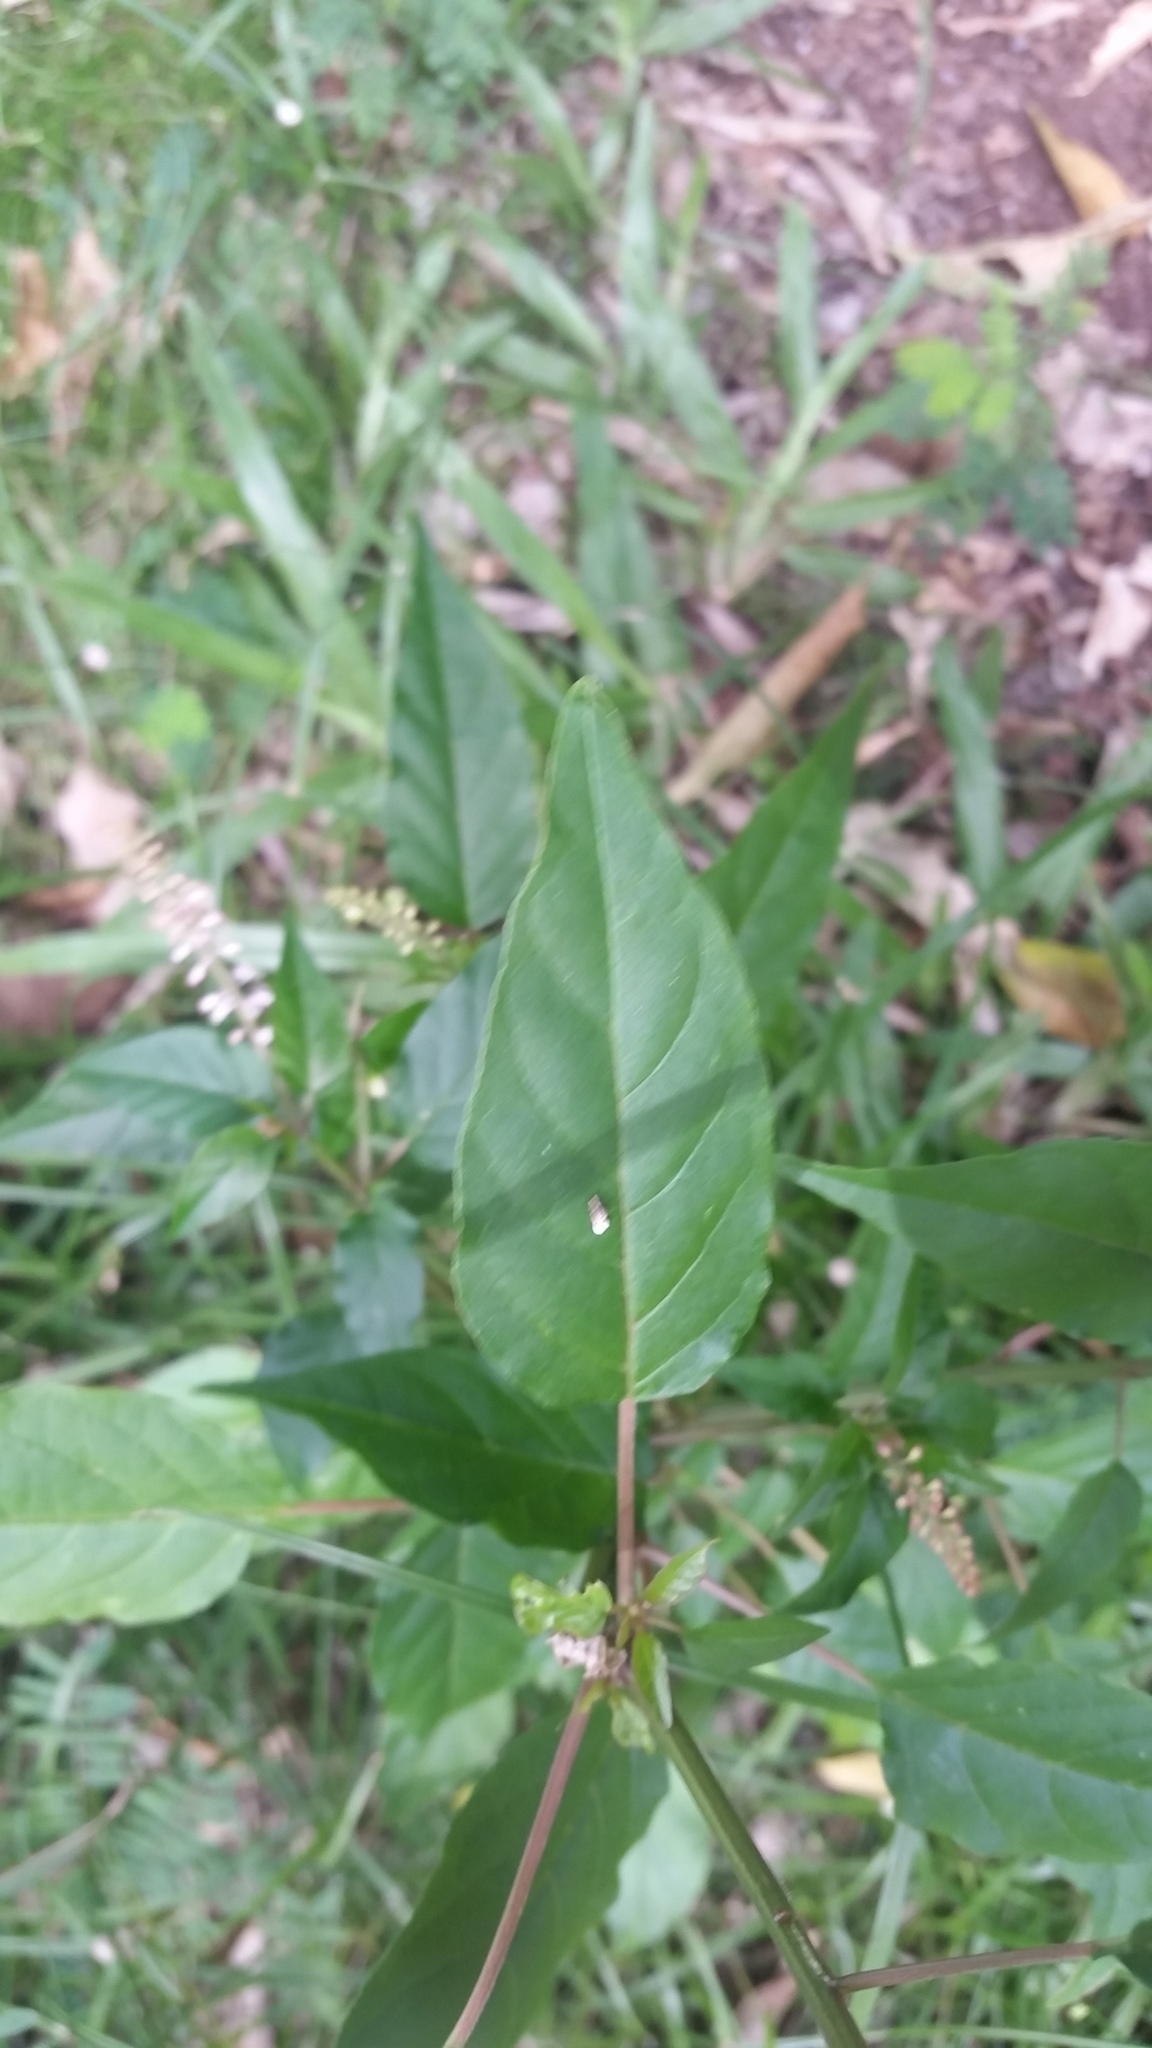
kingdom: Plantae
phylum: Tracheophyta
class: Magnoliopsida
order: Caryophyllales
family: Phytolaccaceae
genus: Rivina
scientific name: Rivina humilis
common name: Rougeplant
